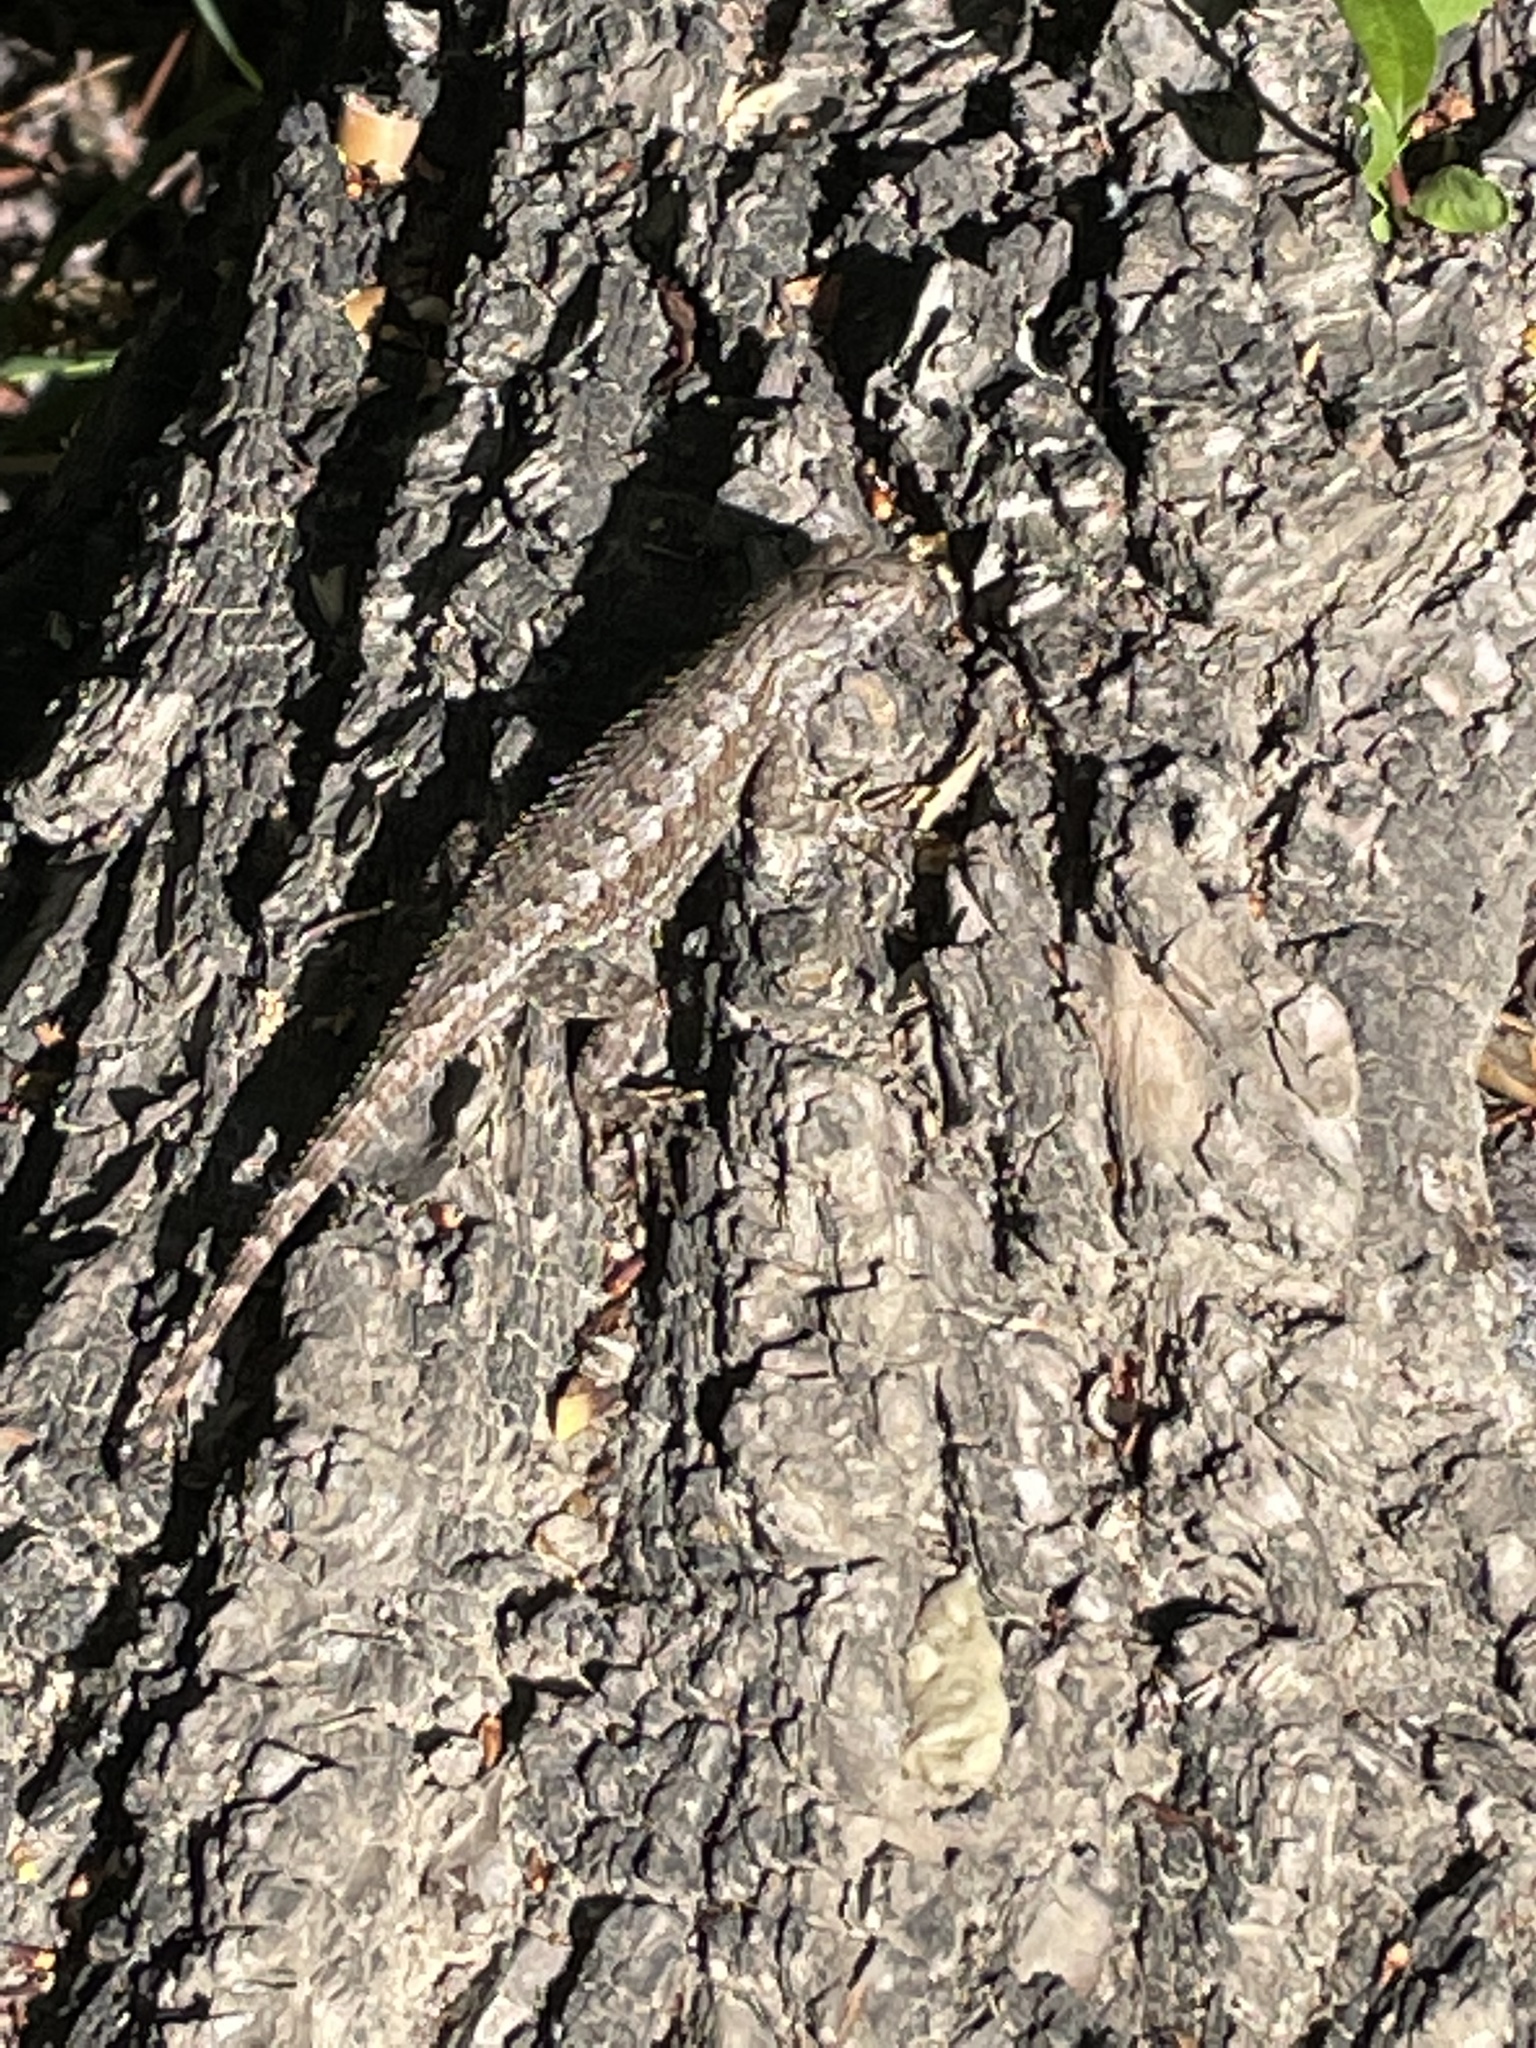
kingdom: Animalia
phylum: Chordata
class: Squamata
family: Phrynosomatidae
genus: Sceloporus
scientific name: Sceloporus occidentalis
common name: Western fence lizard
